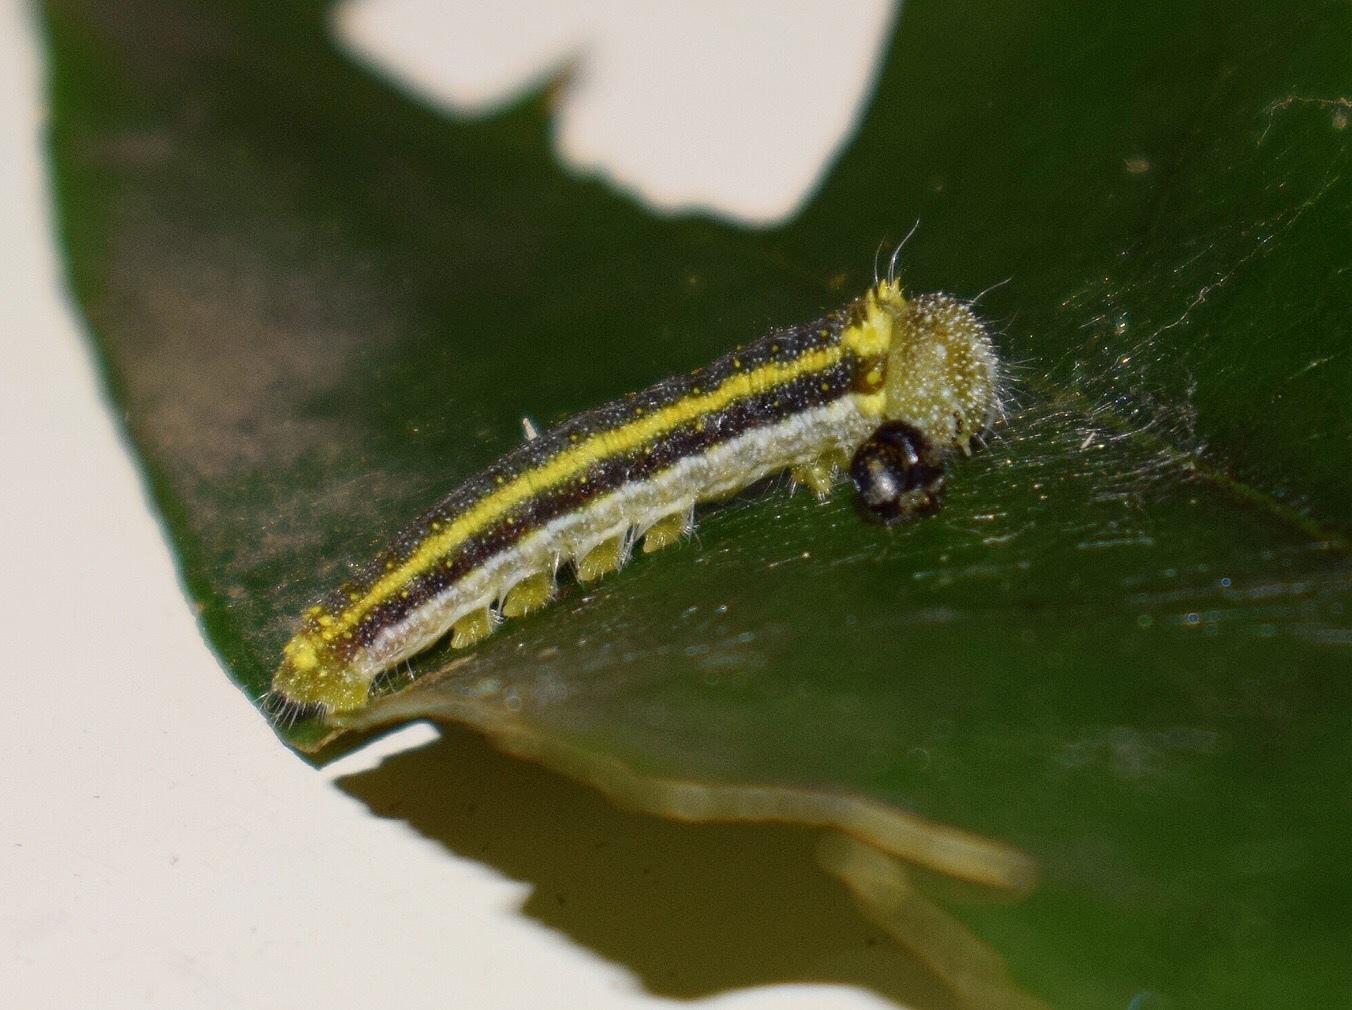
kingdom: Animalia
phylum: Arthropoda
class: Insecta
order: Lepidoptera
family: Pieridae
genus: Belenois
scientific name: Belenois thysa
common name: False dotted border
